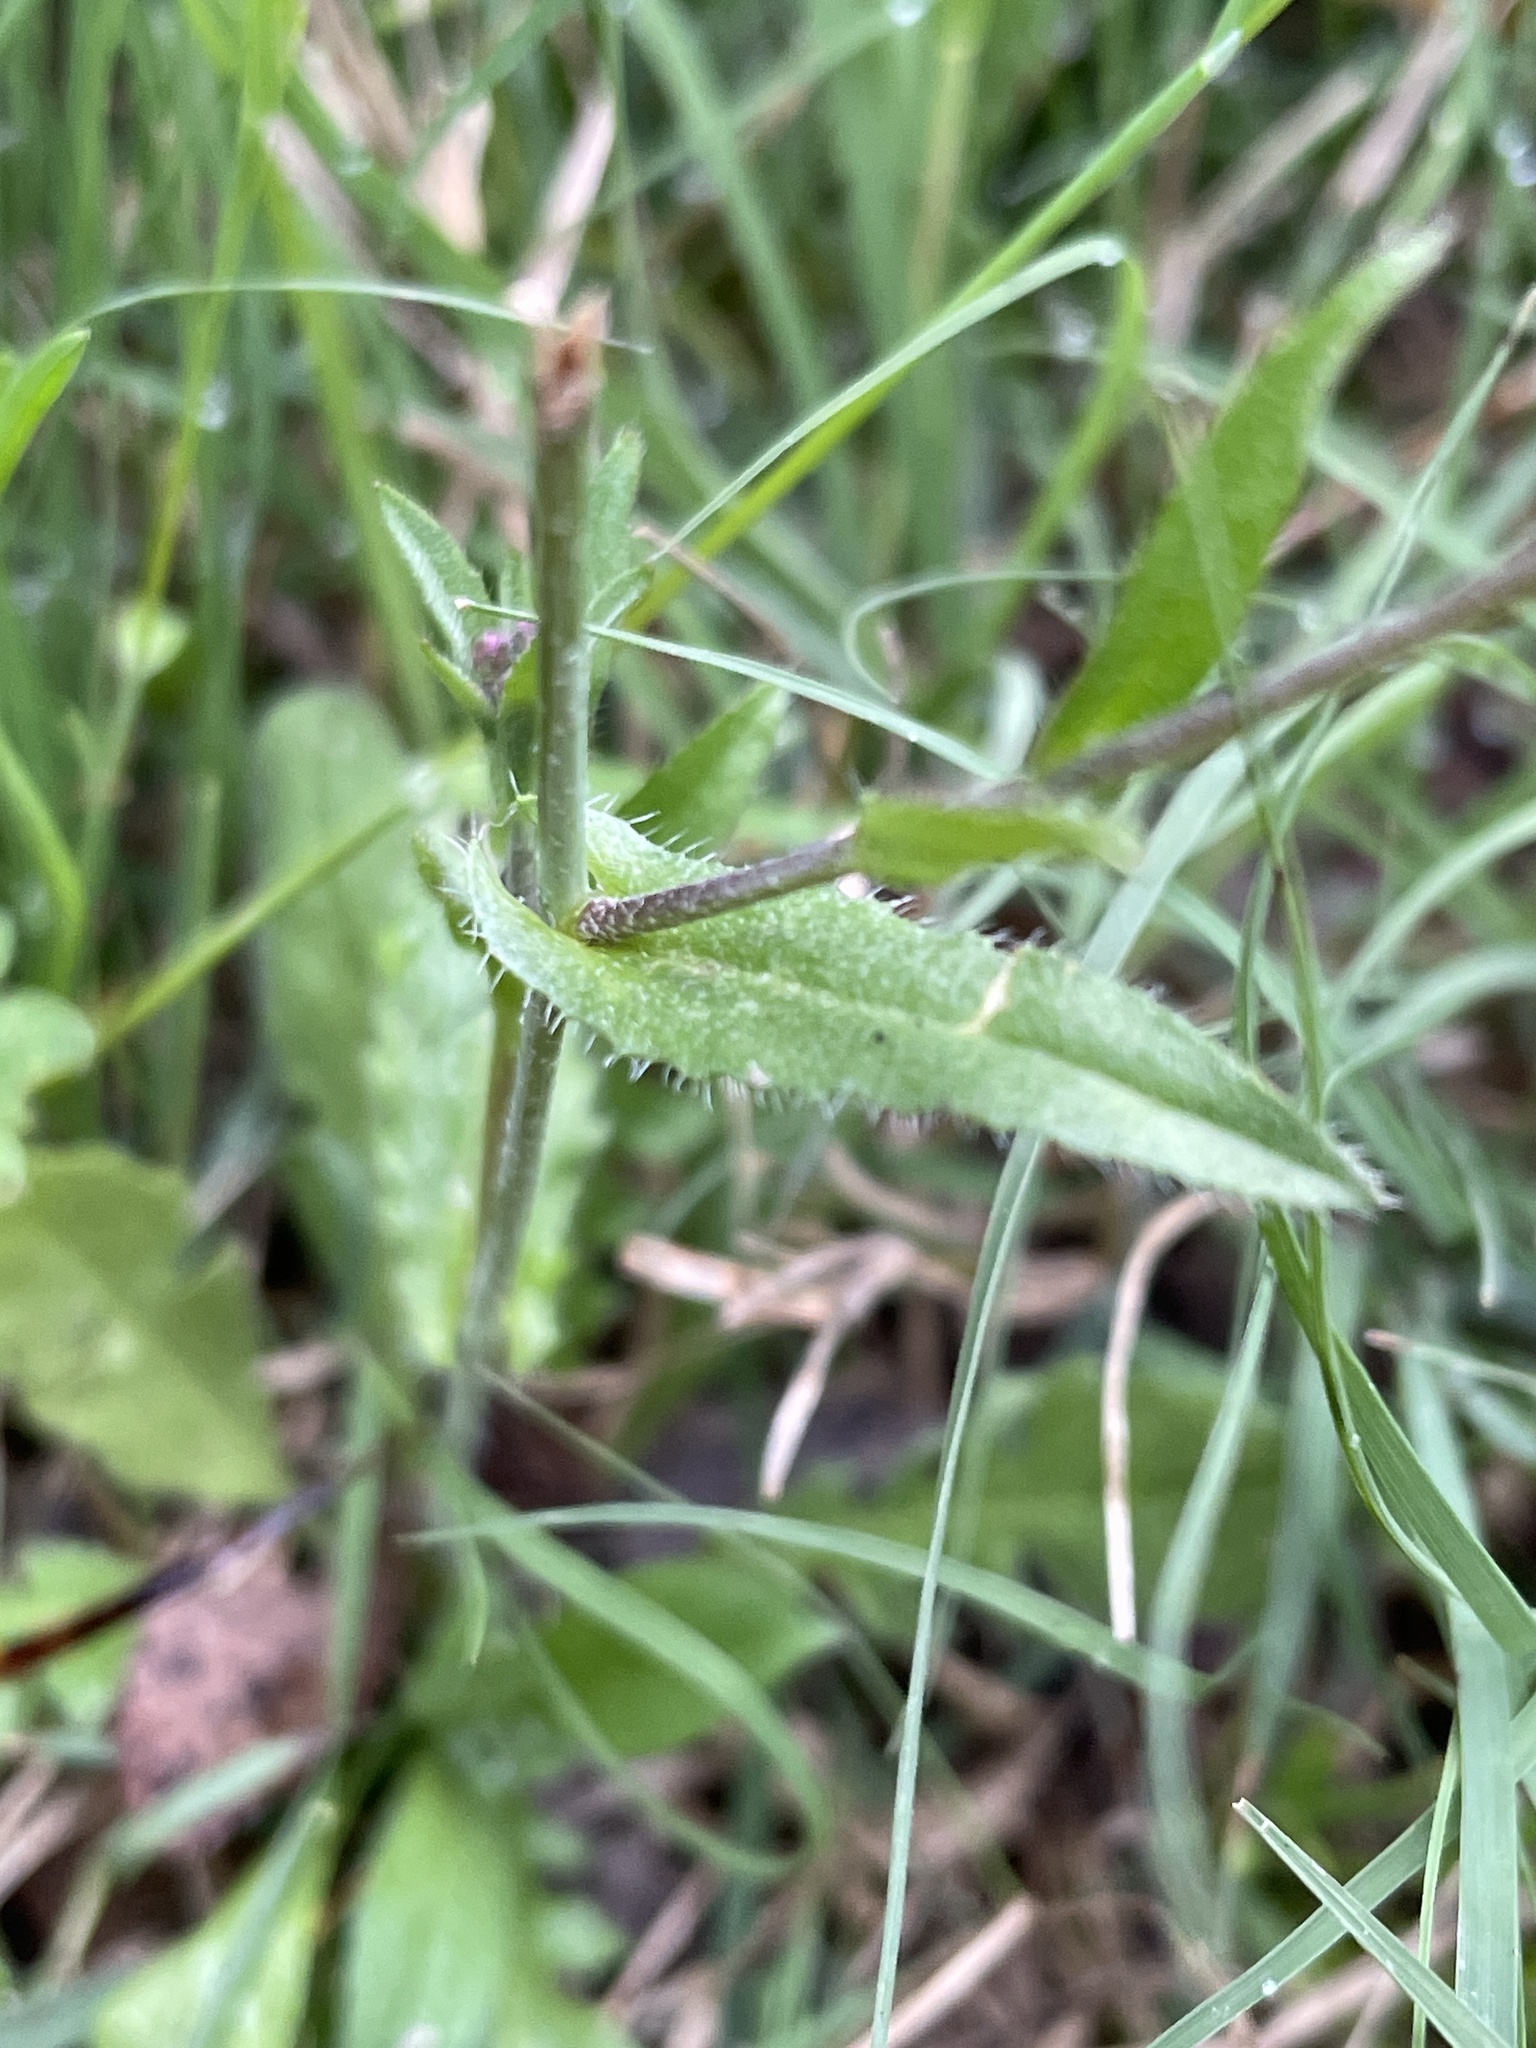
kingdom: Plantae
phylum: Tracheophyta
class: Magnoliopsida
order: Brassicales
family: Brassicaceae
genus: Capsella
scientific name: Capsella bursa-pastoris
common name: Shepherd's purse
